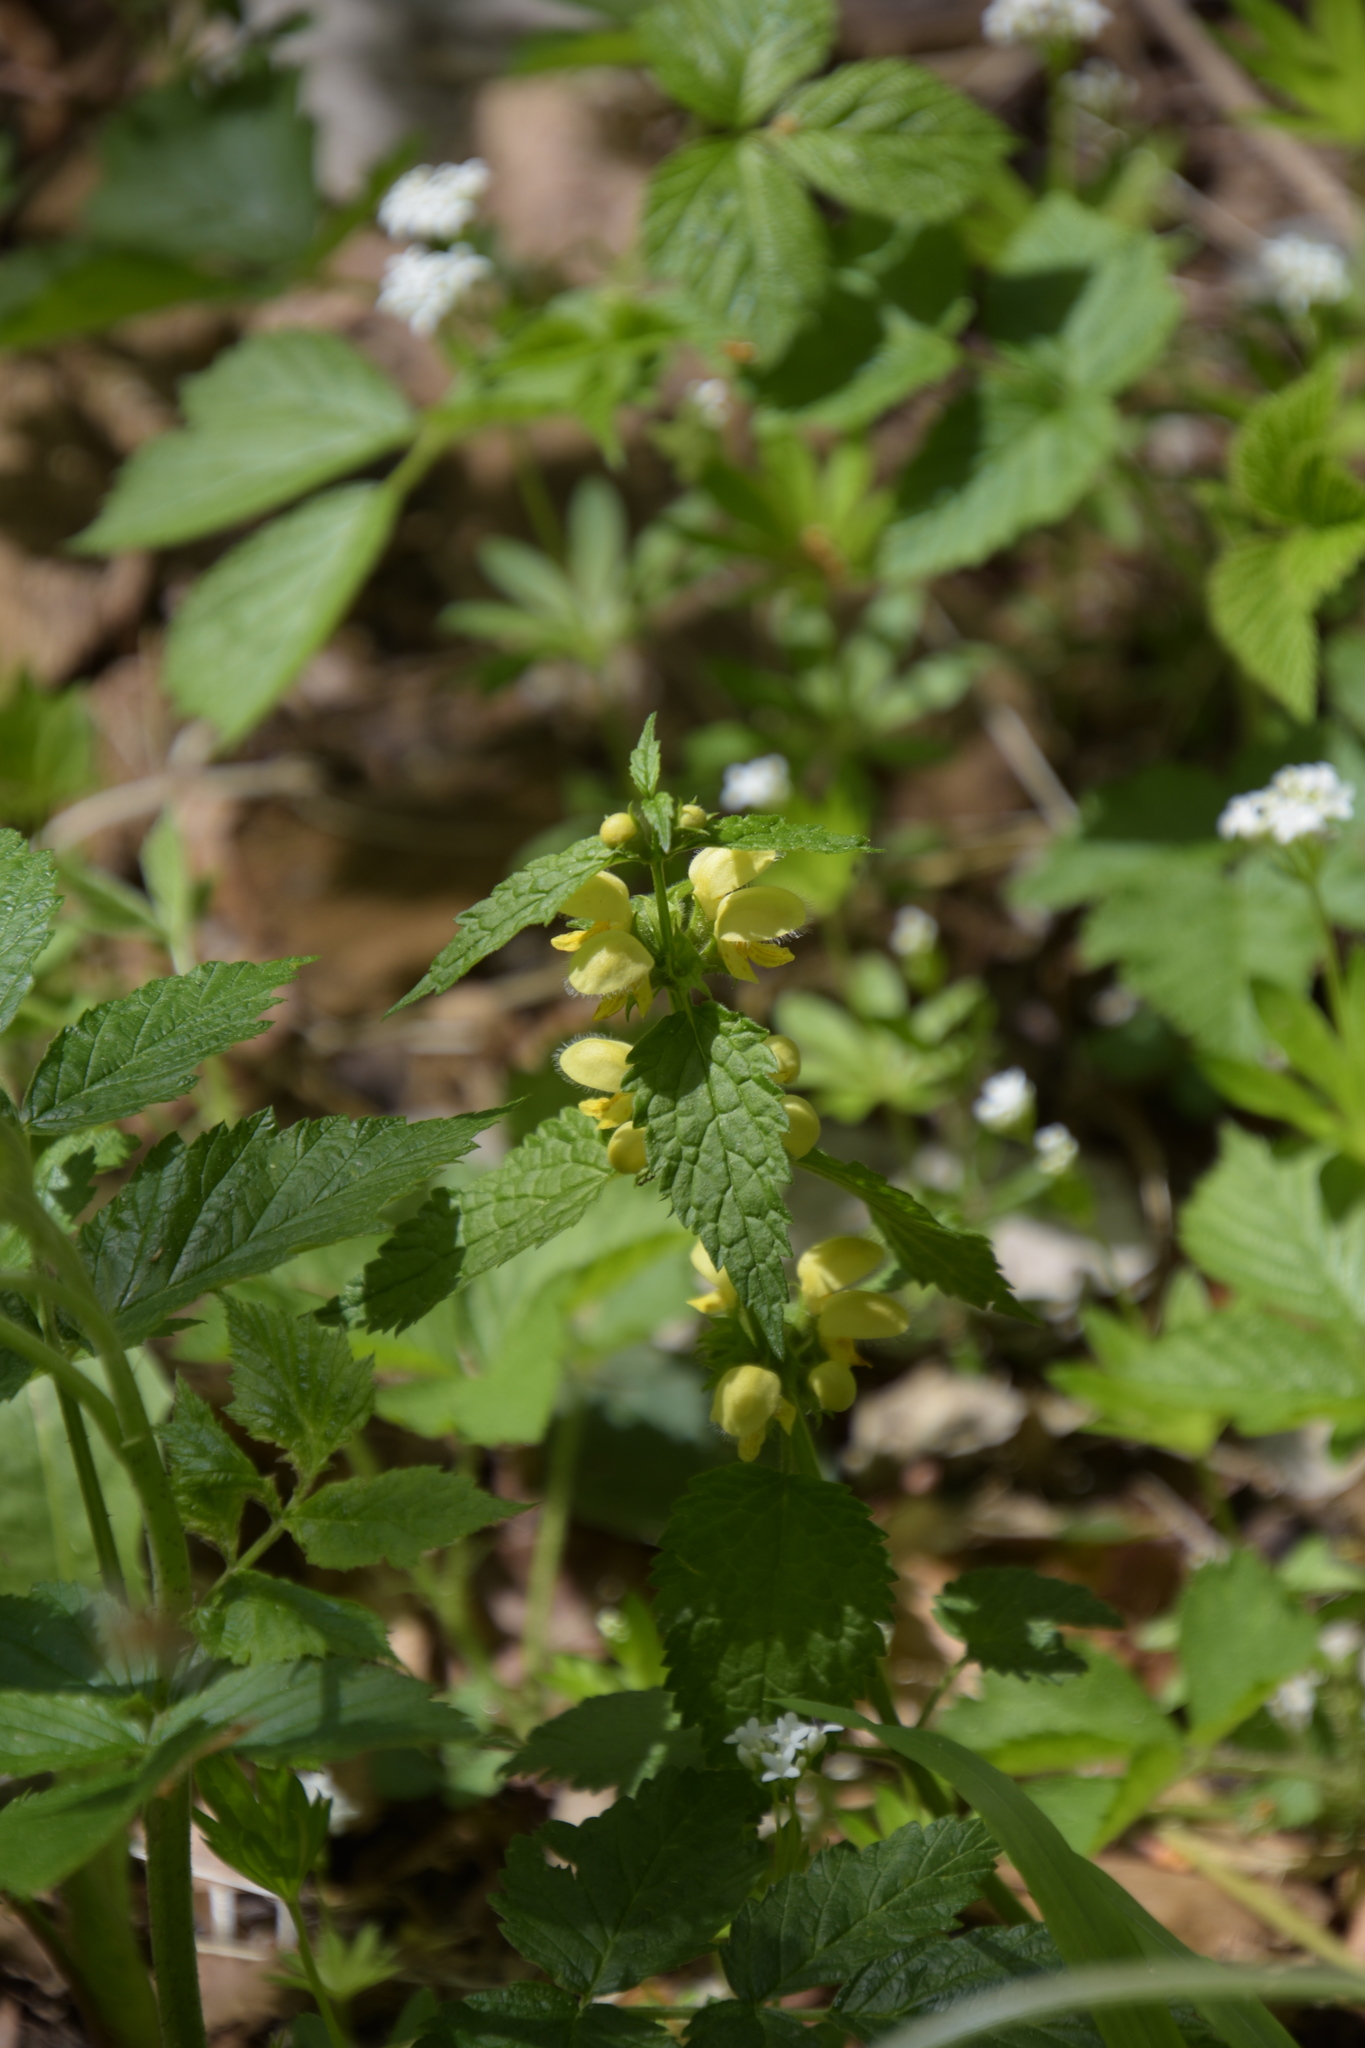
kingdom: Plantae
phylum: Tracheophyta
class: Magnoliopsida
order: Lamiales
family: Lamiaceae
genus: Lamium
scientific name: Lamium galeobdolon
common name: Yellow archangel
